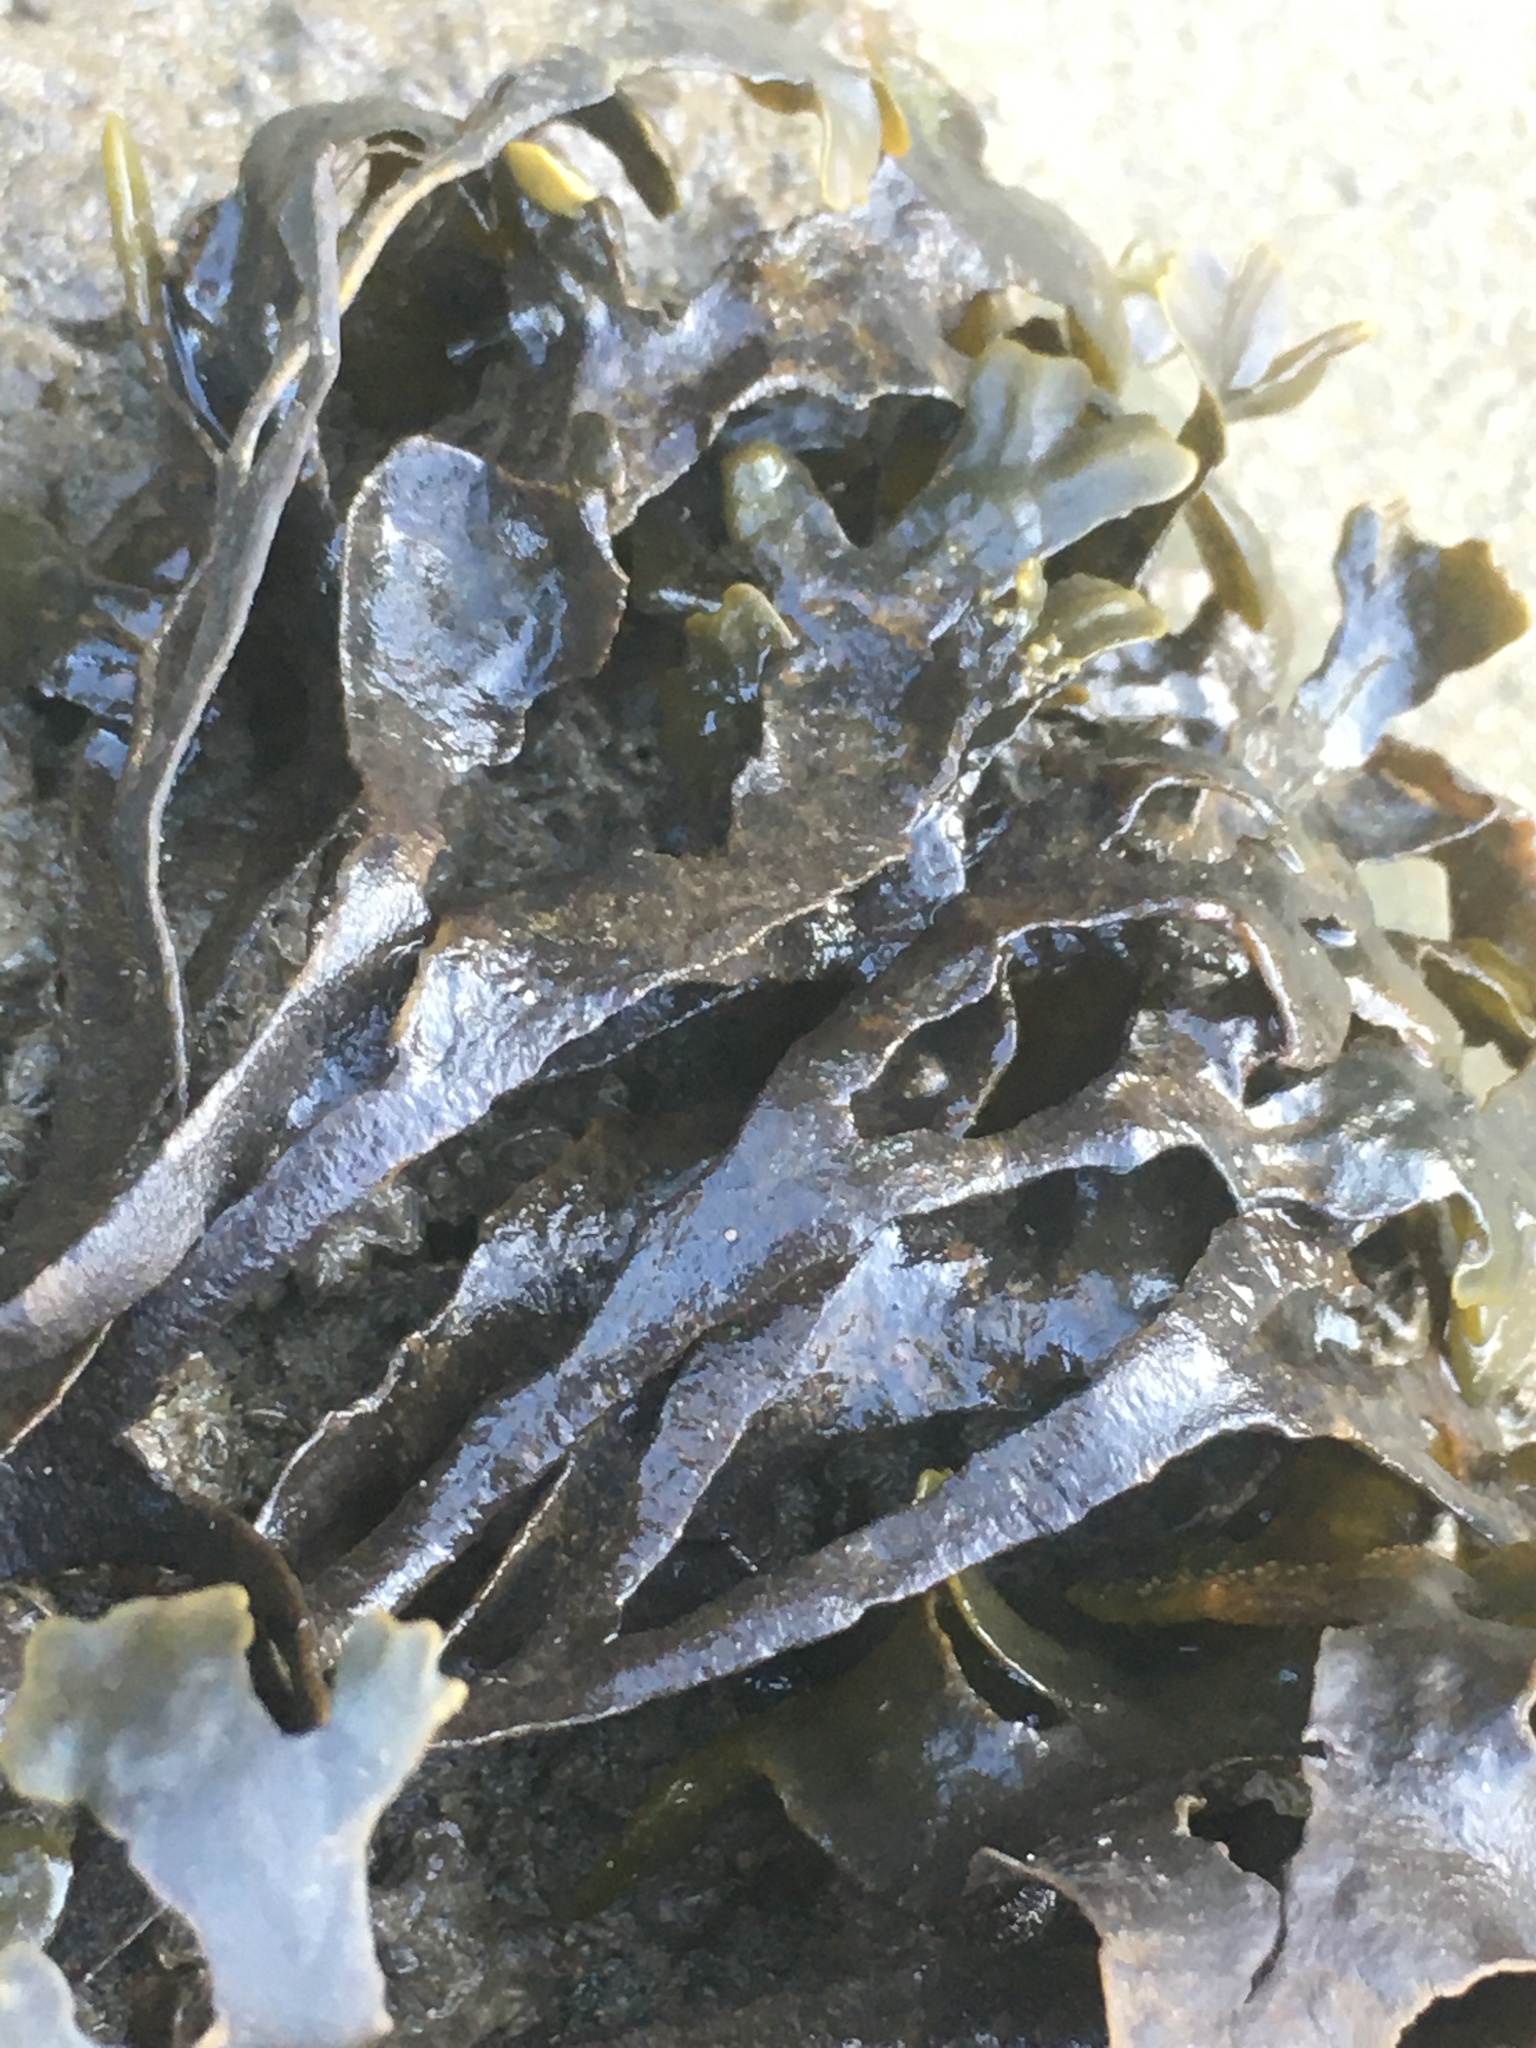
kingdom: Chromista
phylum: Ochrophyta
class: Phaeophyceae
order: Fucales
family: Fucaceae
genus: Fucus
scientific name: Fucus distichus
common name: Rockweed
